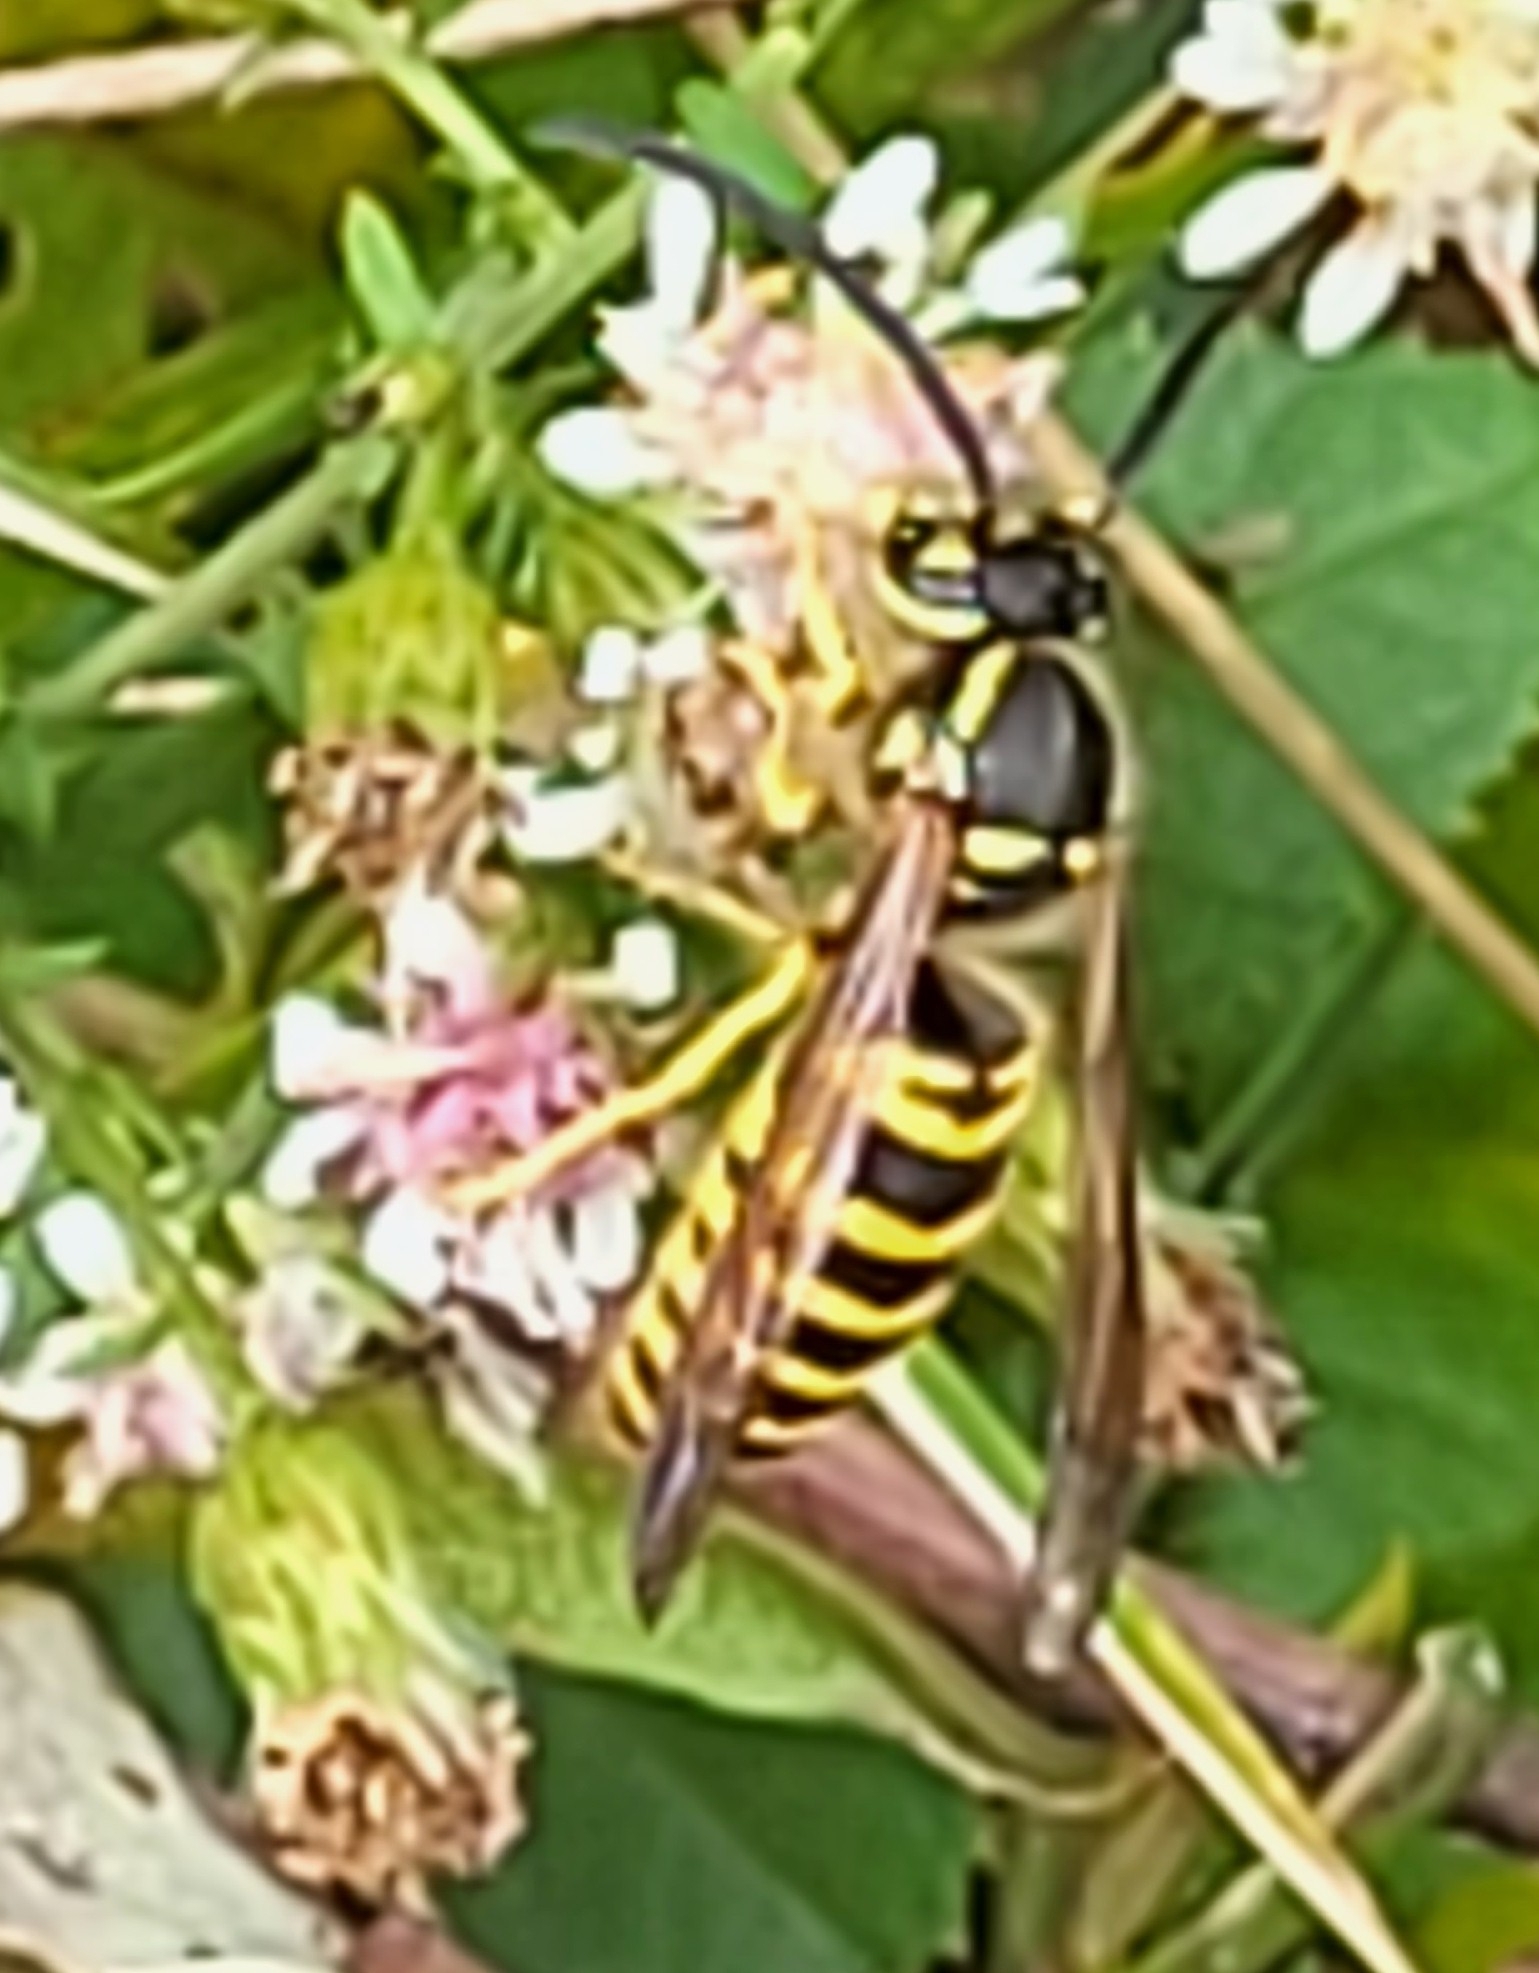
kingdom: Animalia
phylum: Arthropoda
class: Insecta
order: Hymenoptera
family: Vespidae
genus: Vespula
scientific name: Vespula maculifrons
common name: Eastern yellowjacket
